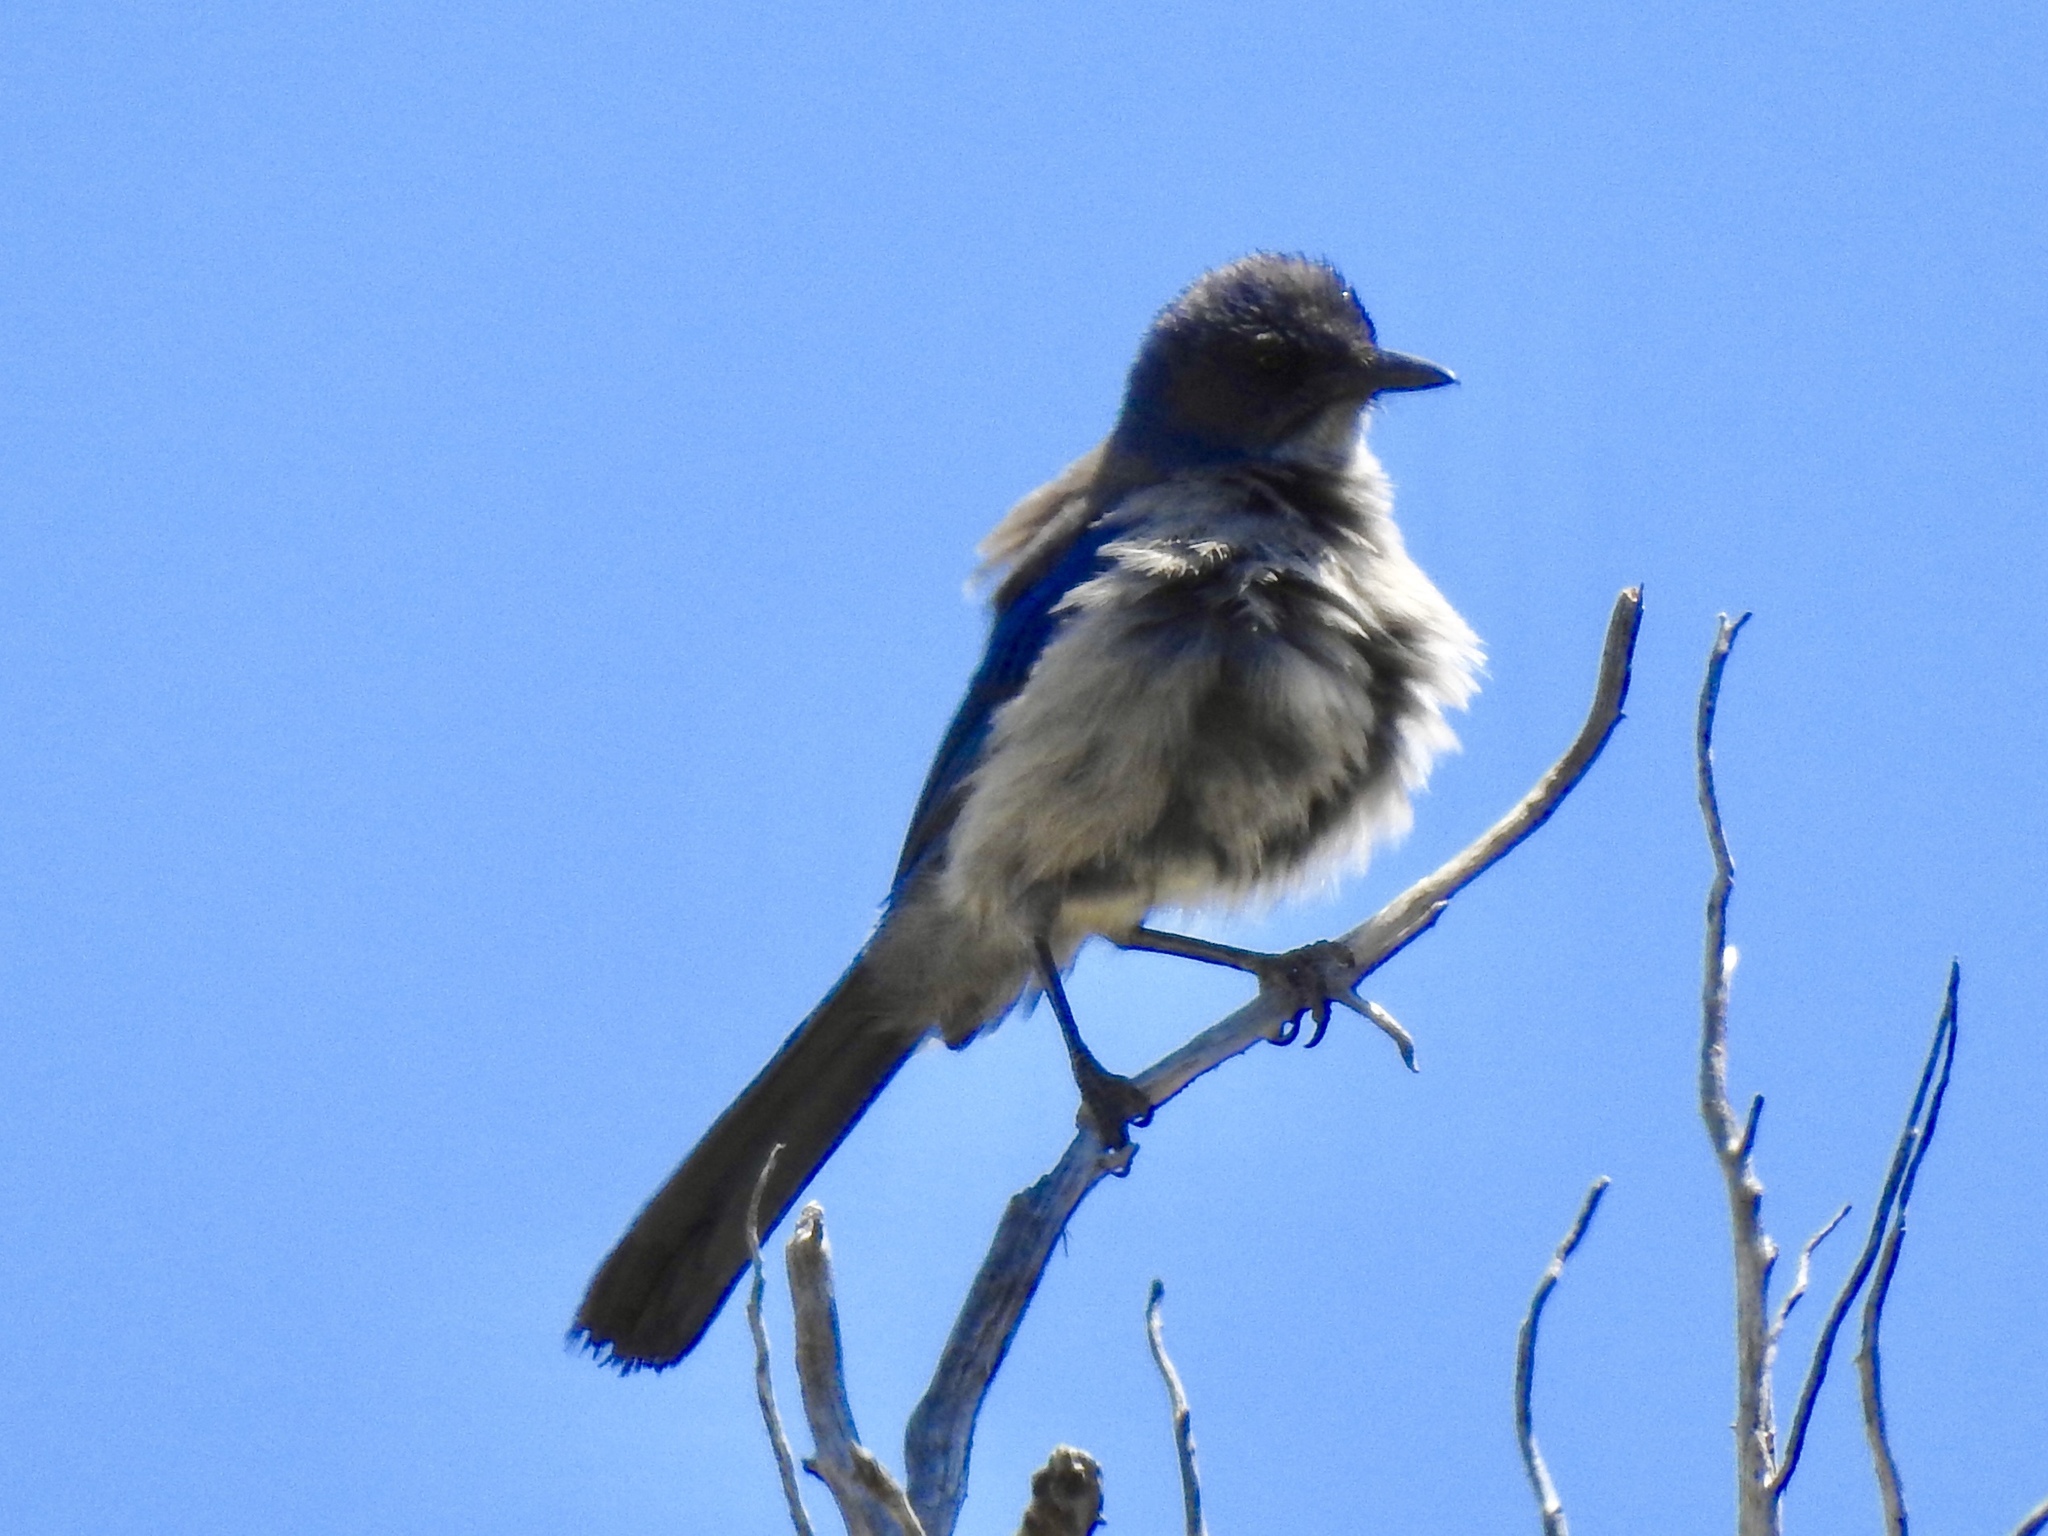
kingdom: Animalia
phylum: Chordata
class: Aves
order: Passeriformes
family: Corvidae
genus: Aphelocoma
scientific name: Aphelocoma woodhouseii
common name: Woodhouse's scrub-jay
